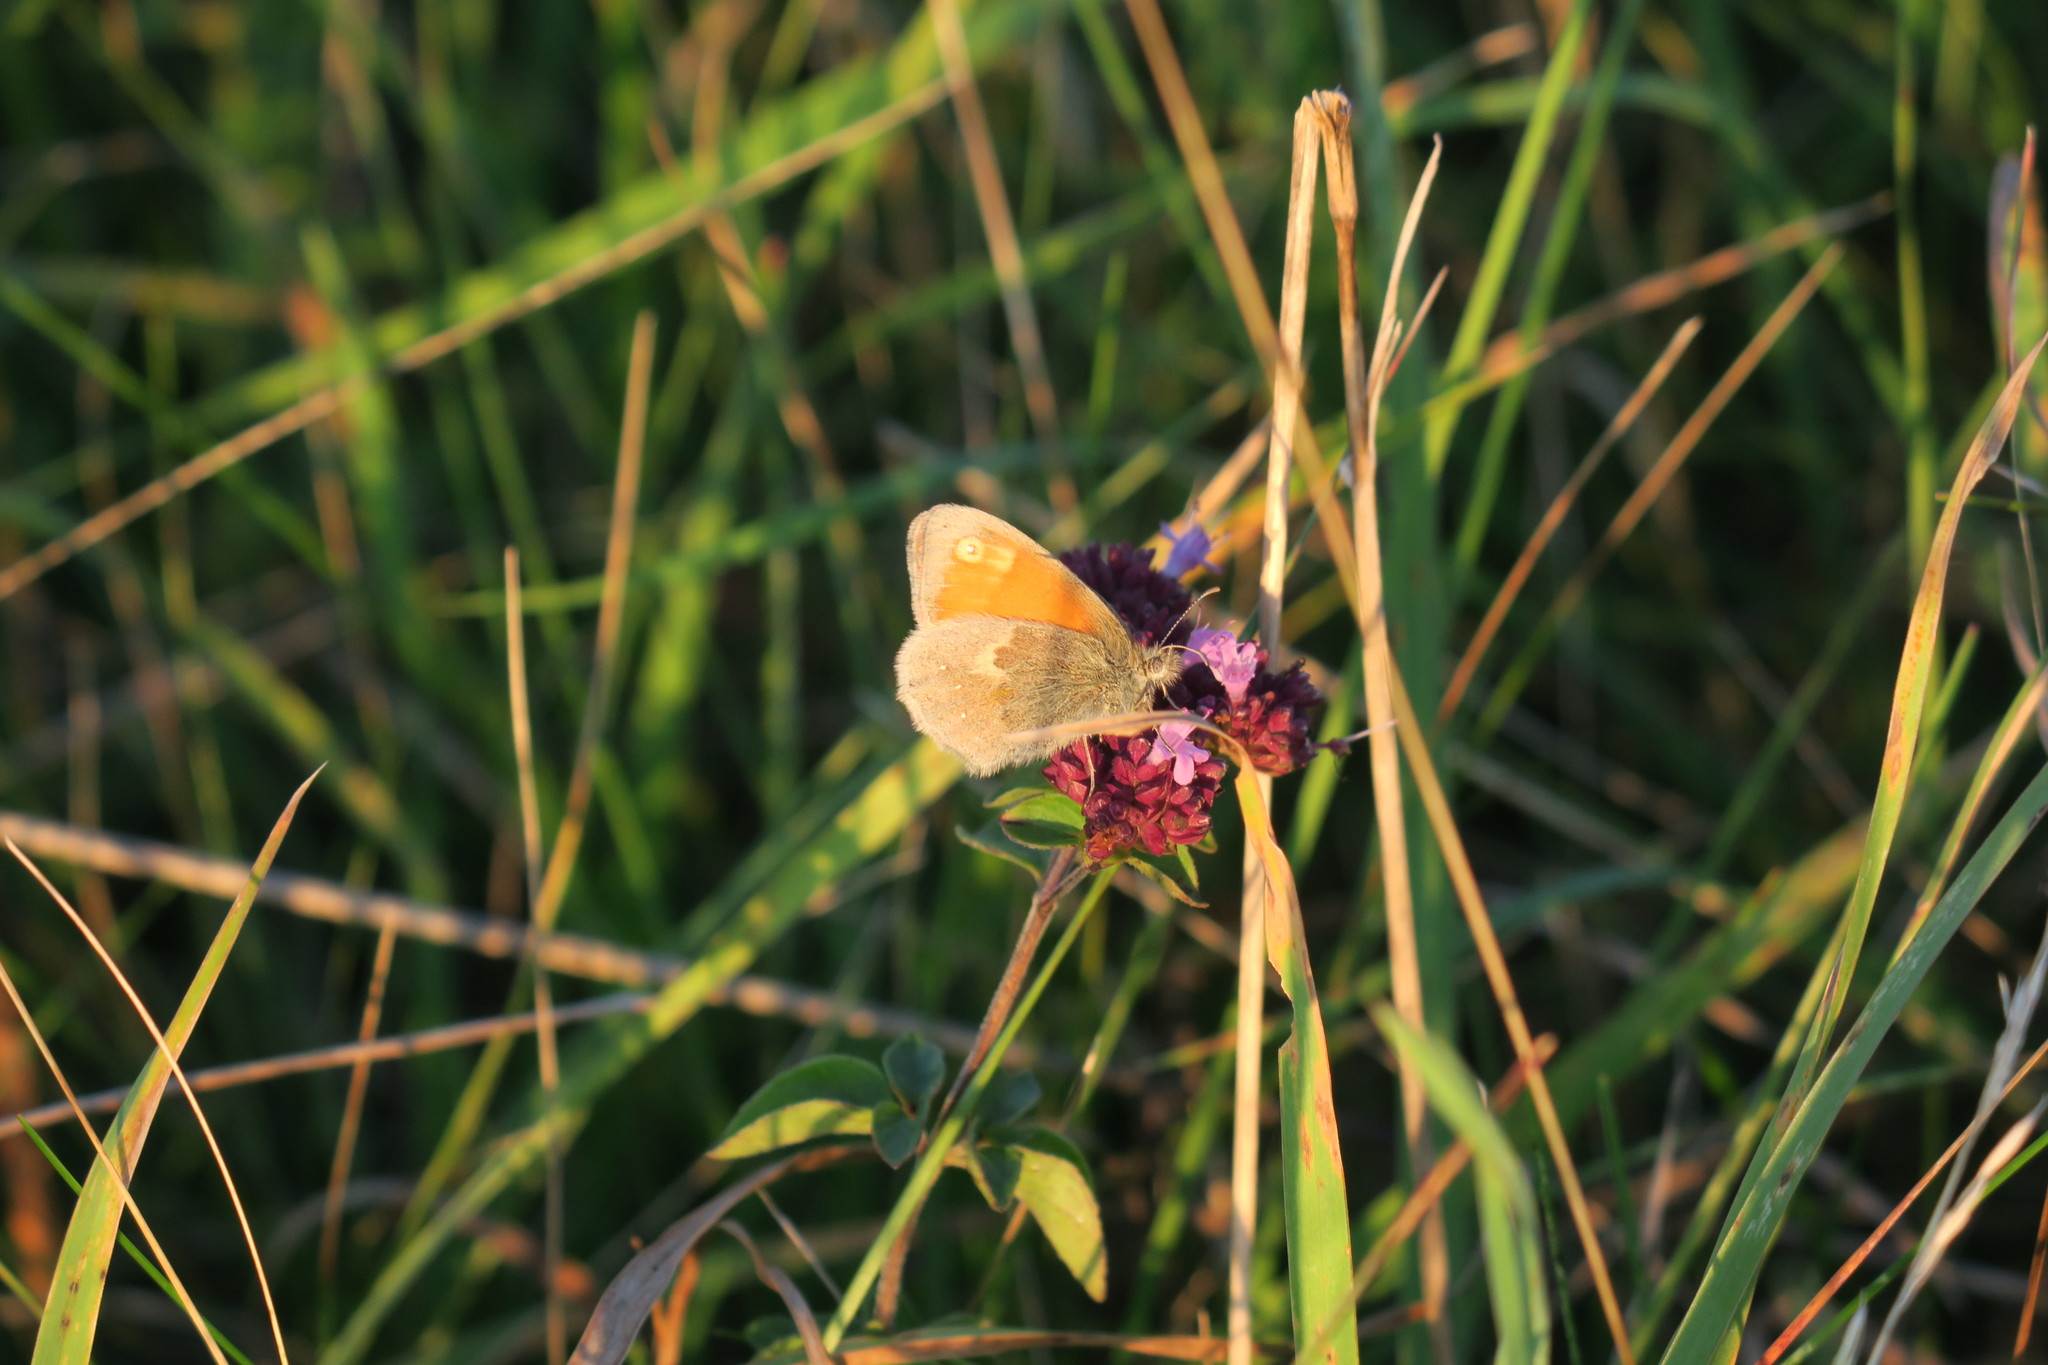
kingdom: Animalia
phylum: Arthropoda
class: Insecta
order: Lepidoptera
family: Nymphalidae
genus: Coenonympha
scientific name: Coenonympha pamphilus
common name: Small heath
